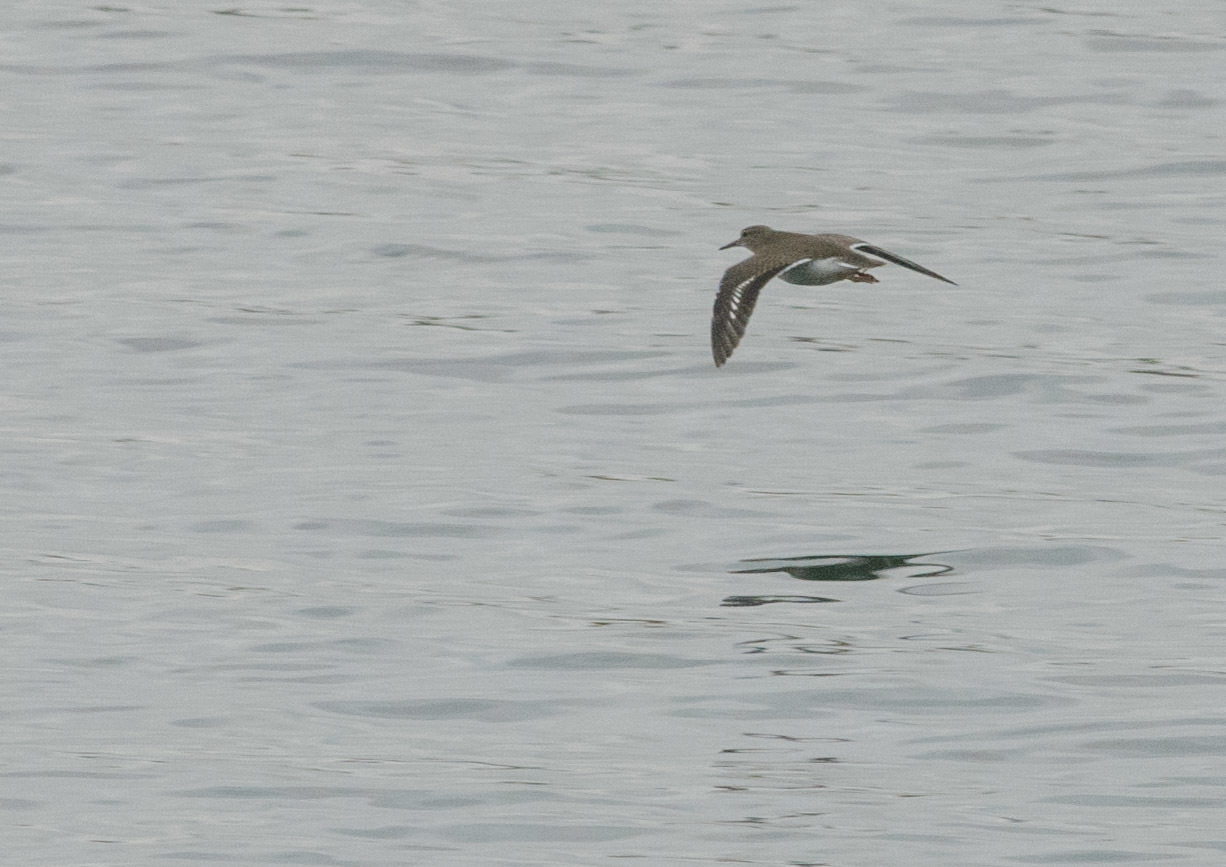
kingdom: Animalia
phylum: Chordata
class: Aves
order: Charadriiformes
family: Scolopacidae
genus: Actitis
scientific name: Actitis macularius
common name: Spotted sandpiper
